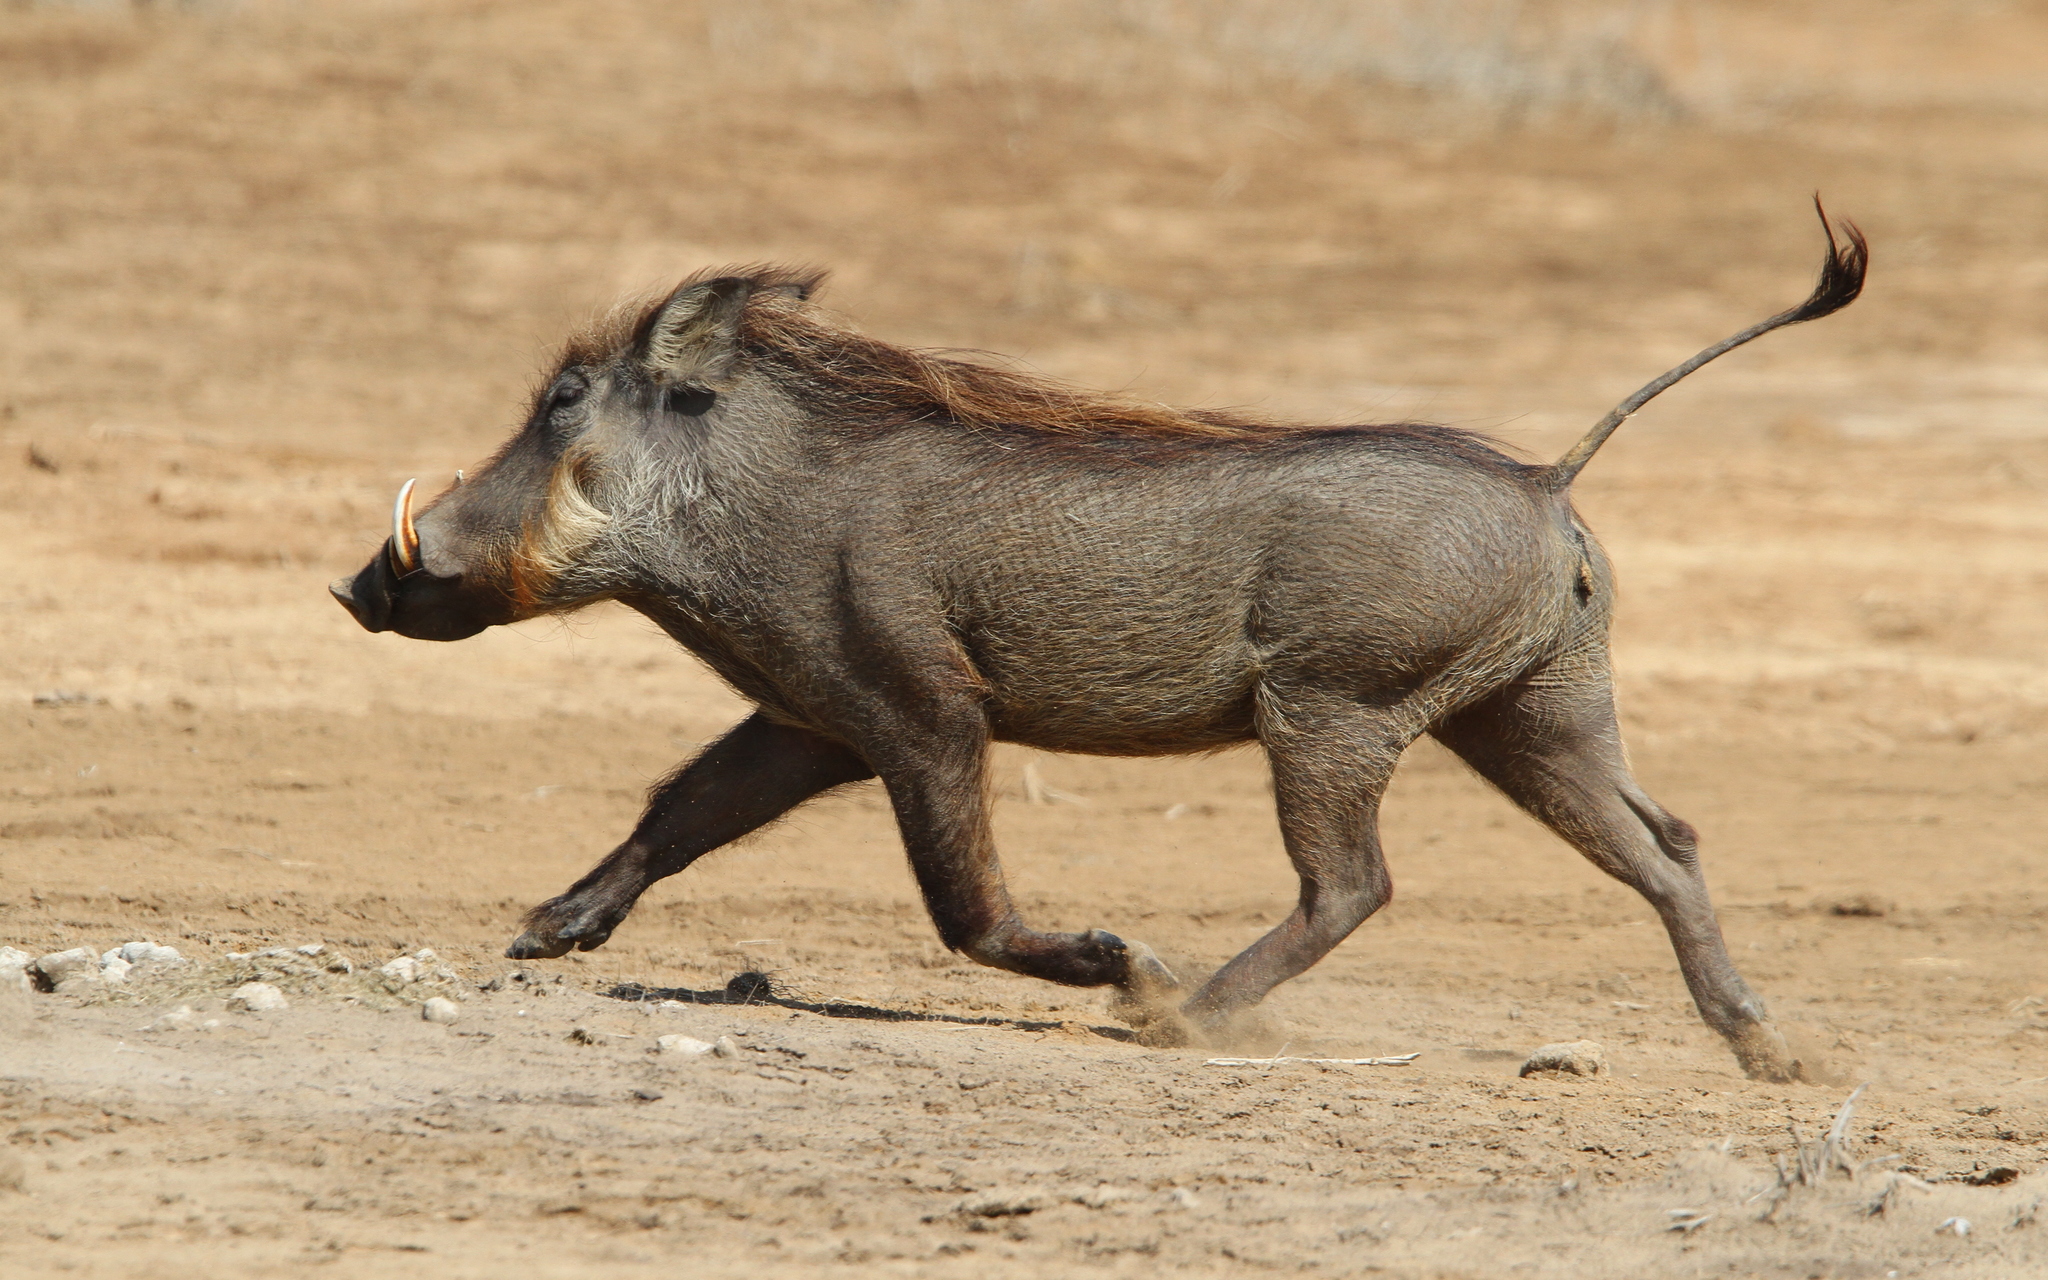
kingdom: Animalia
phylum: Chordata
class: Mammalia
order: Artiodactyla
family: Suidae
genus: Phacochoerus
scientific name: Phacochoerus africanus
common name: Common warthog
